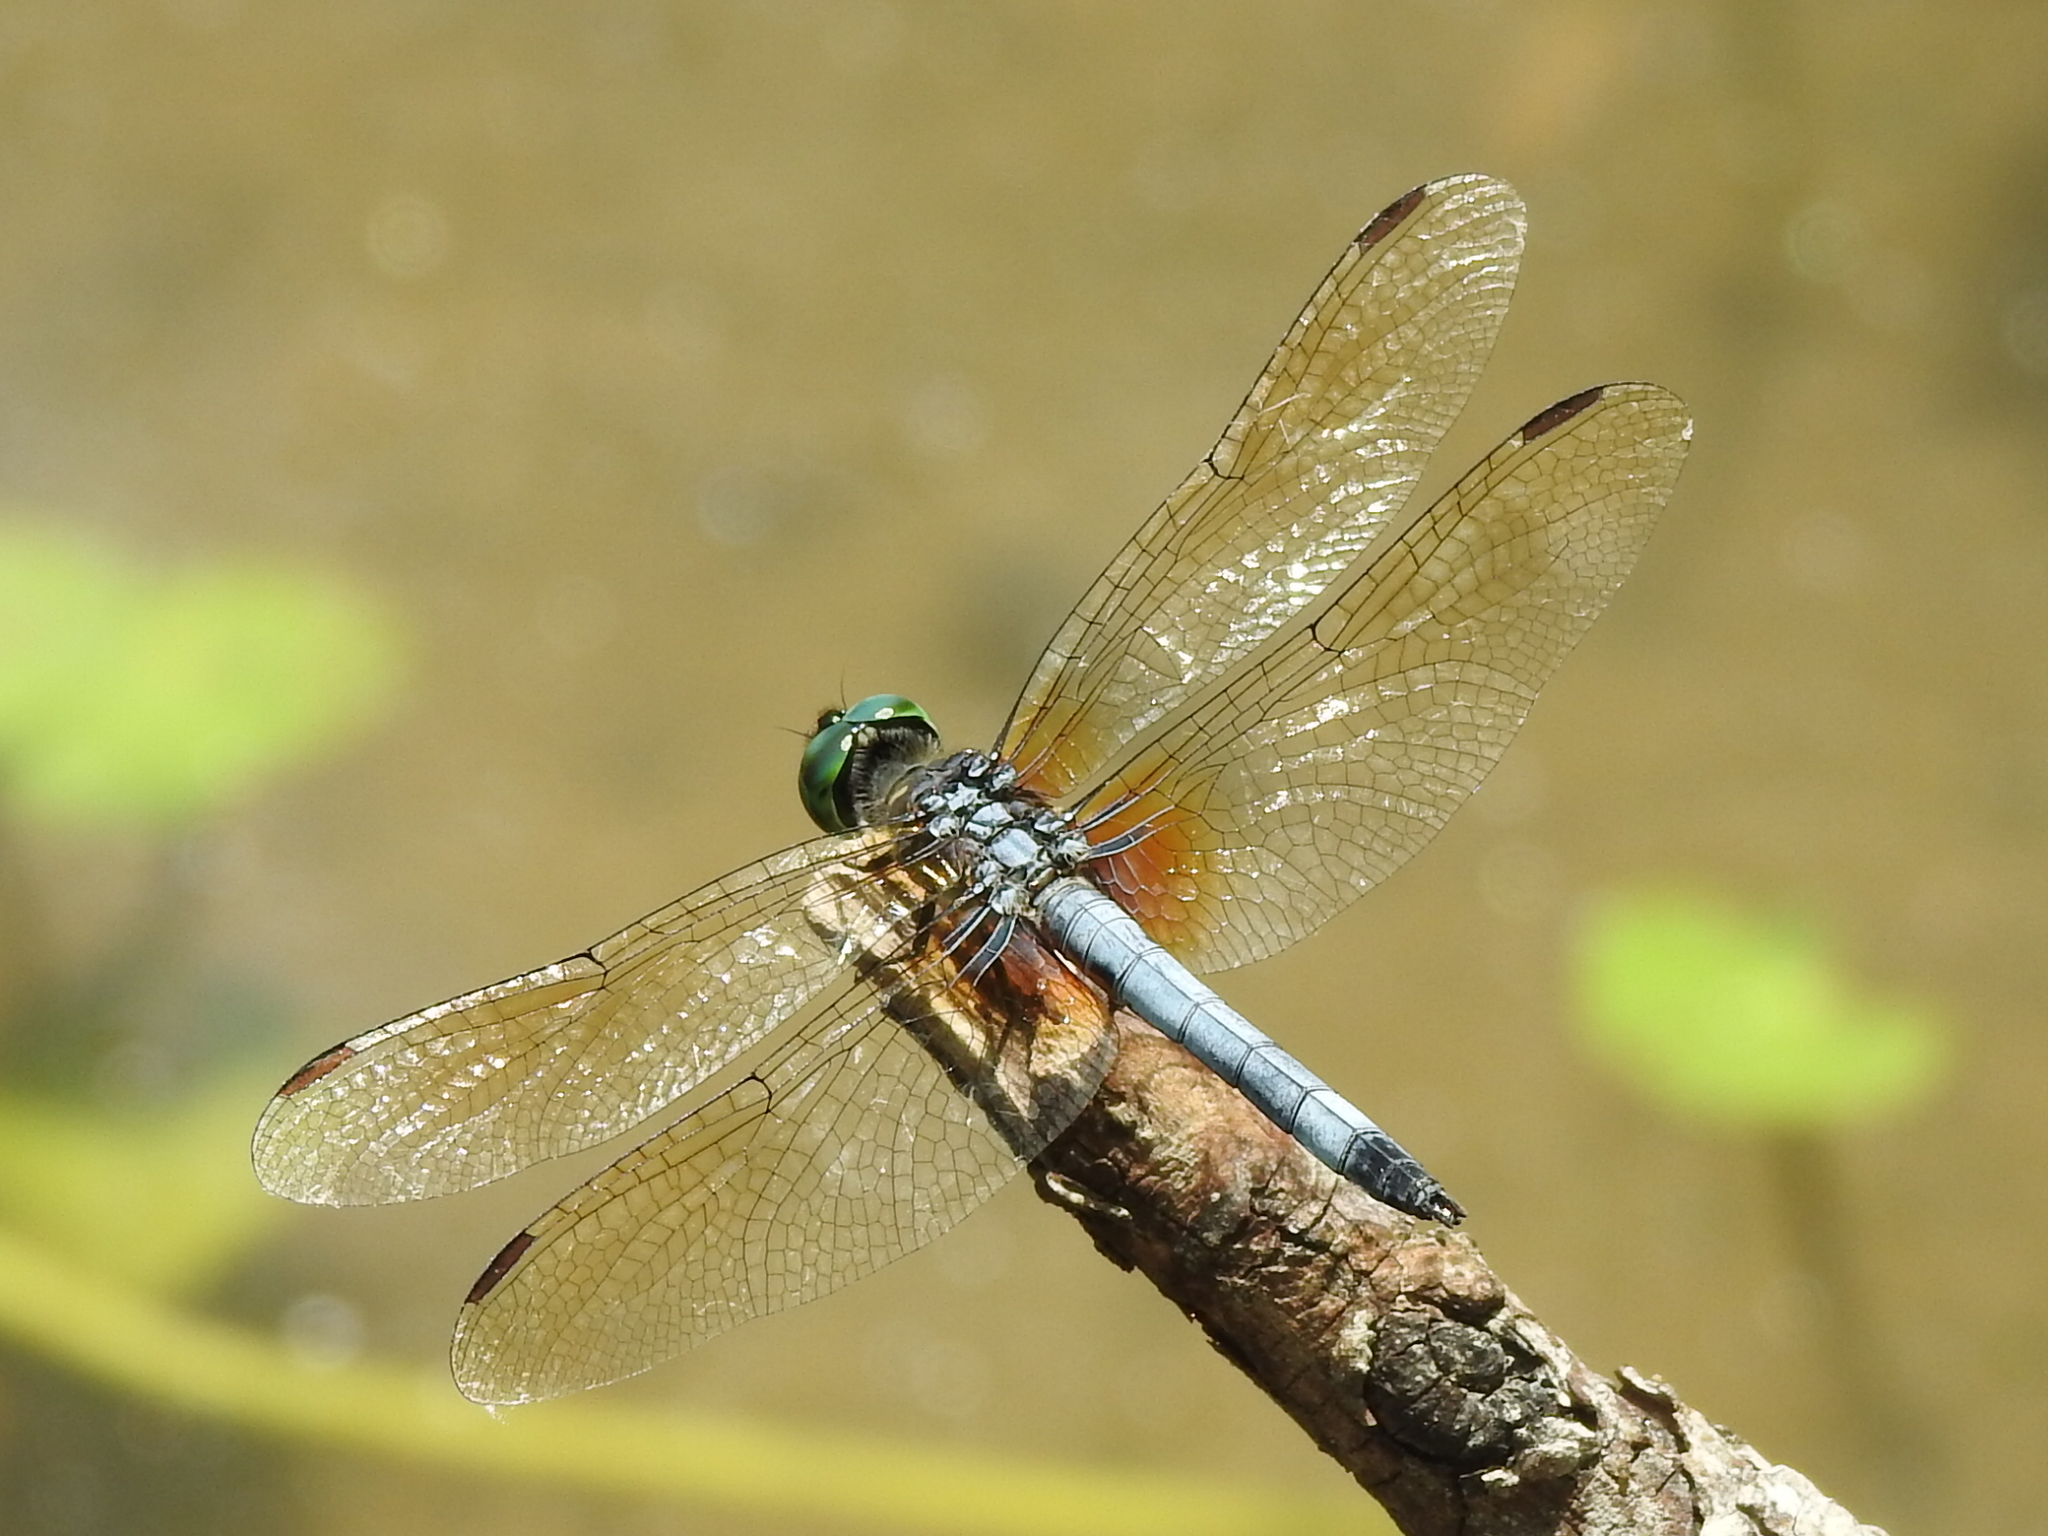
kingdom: Animalia
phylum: Arthropoda
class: Insecta
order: Odonata
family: Libellulidae
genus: Pachydiplax
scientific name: Pachydiplax longipennis
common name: Blue dasher
